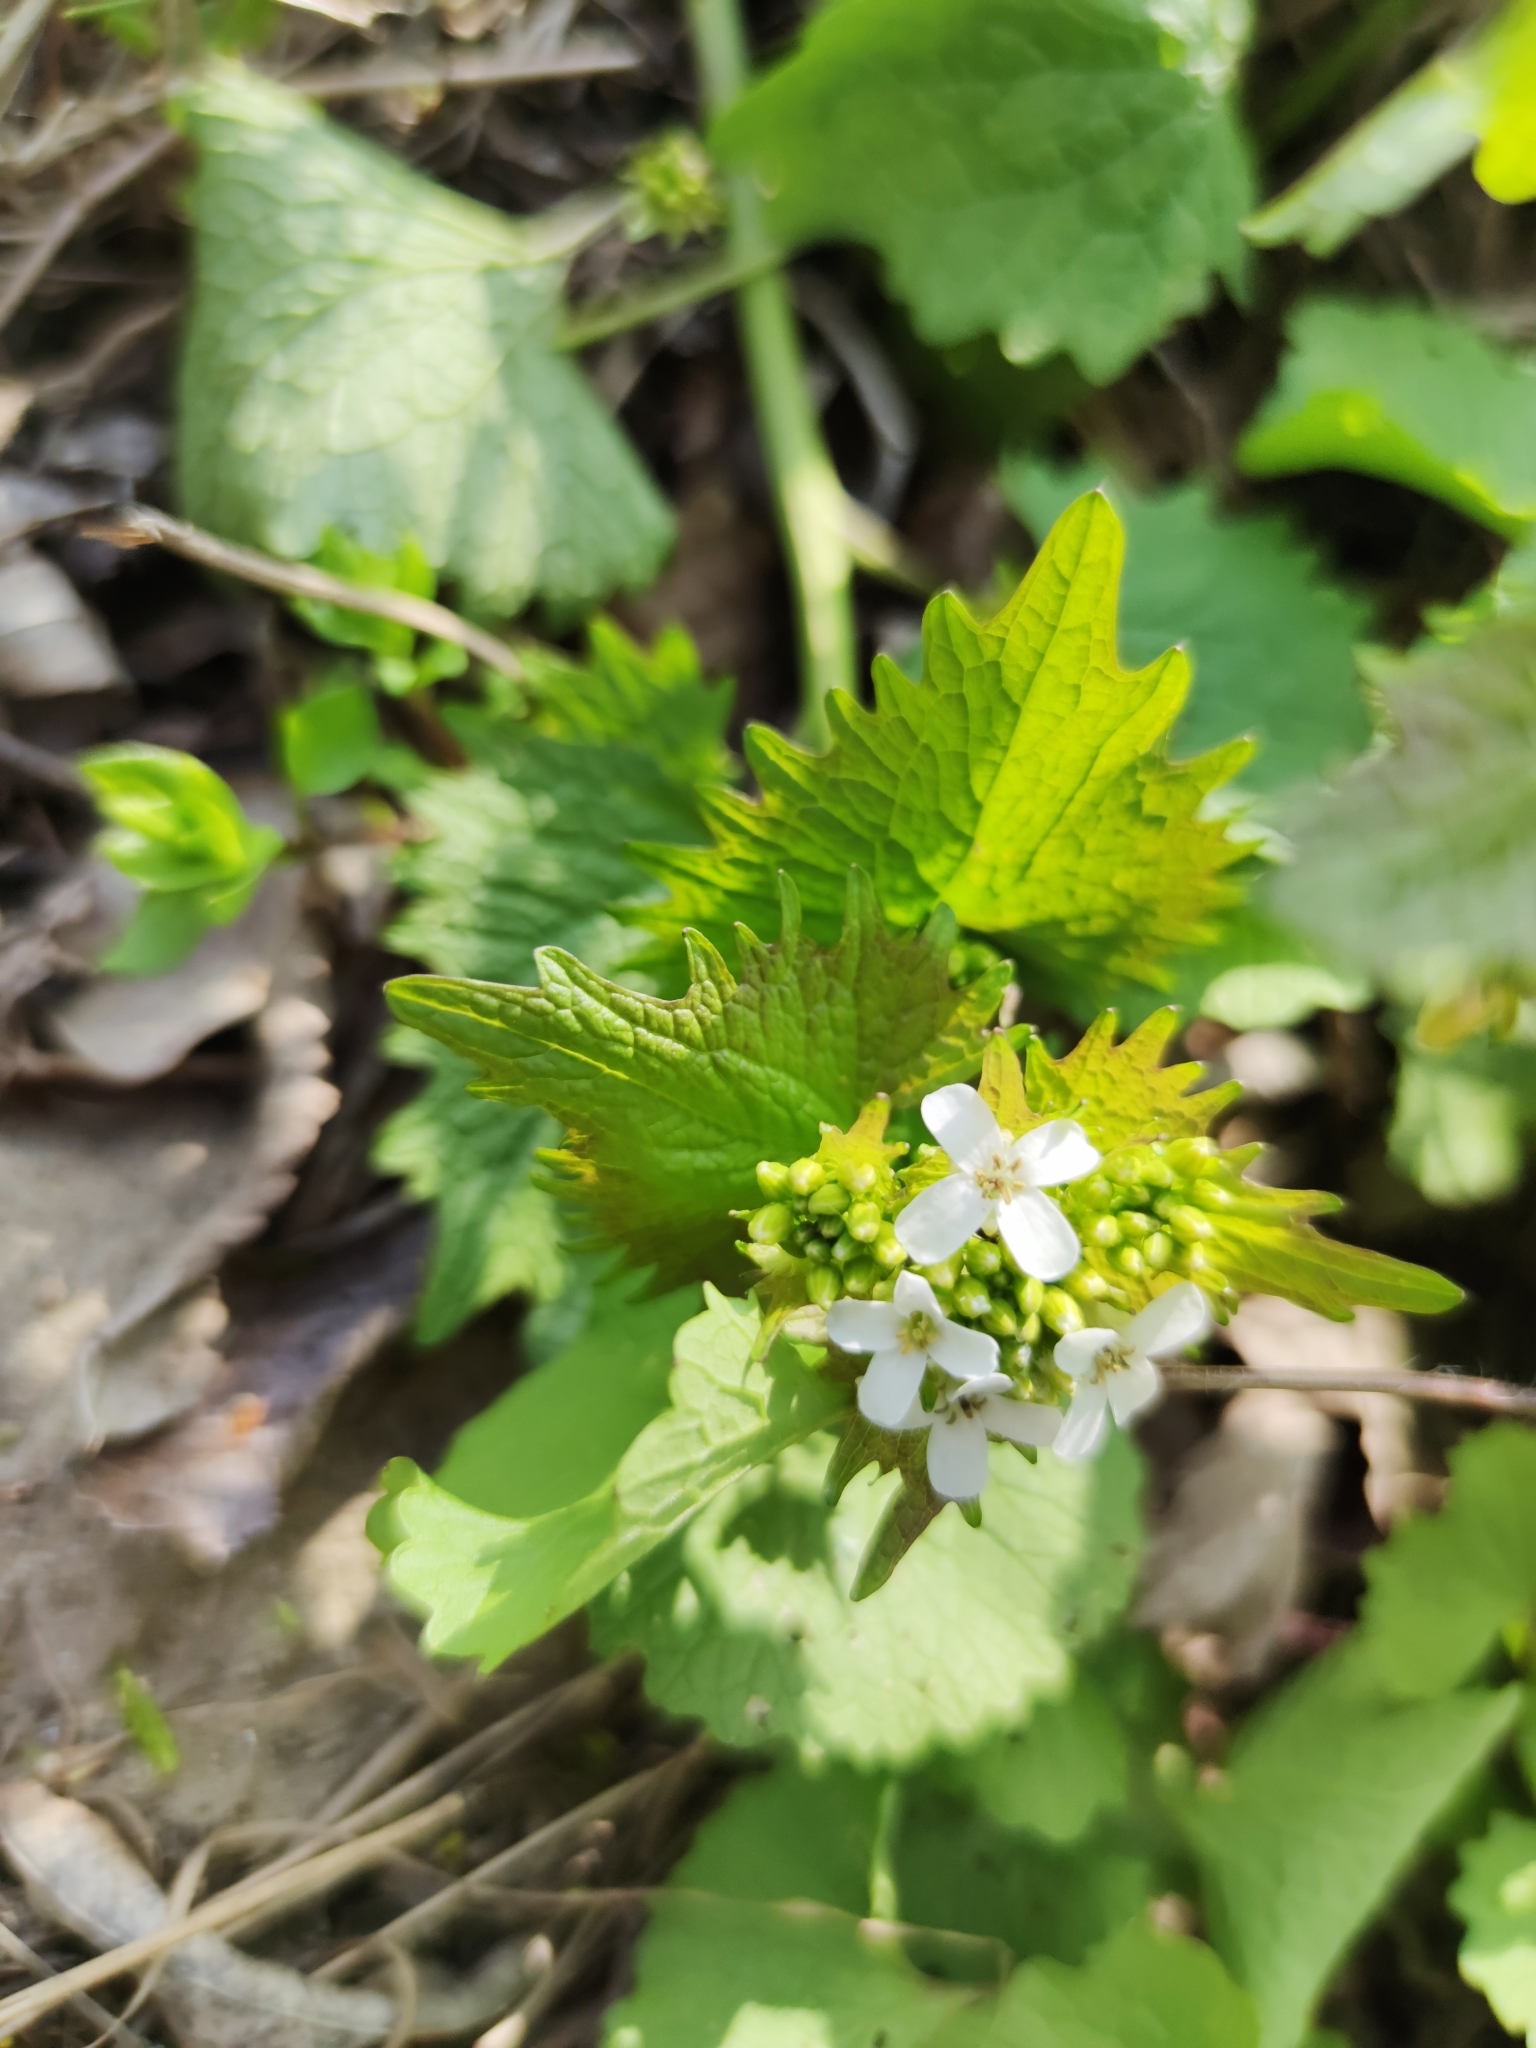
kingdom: Plantae
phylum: Tracheophyta
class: Magnoliopsida
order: Brassicales
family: Brassicaceae
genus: Alliaria
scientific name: Alliaria petiolata
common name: Garlic mustard
